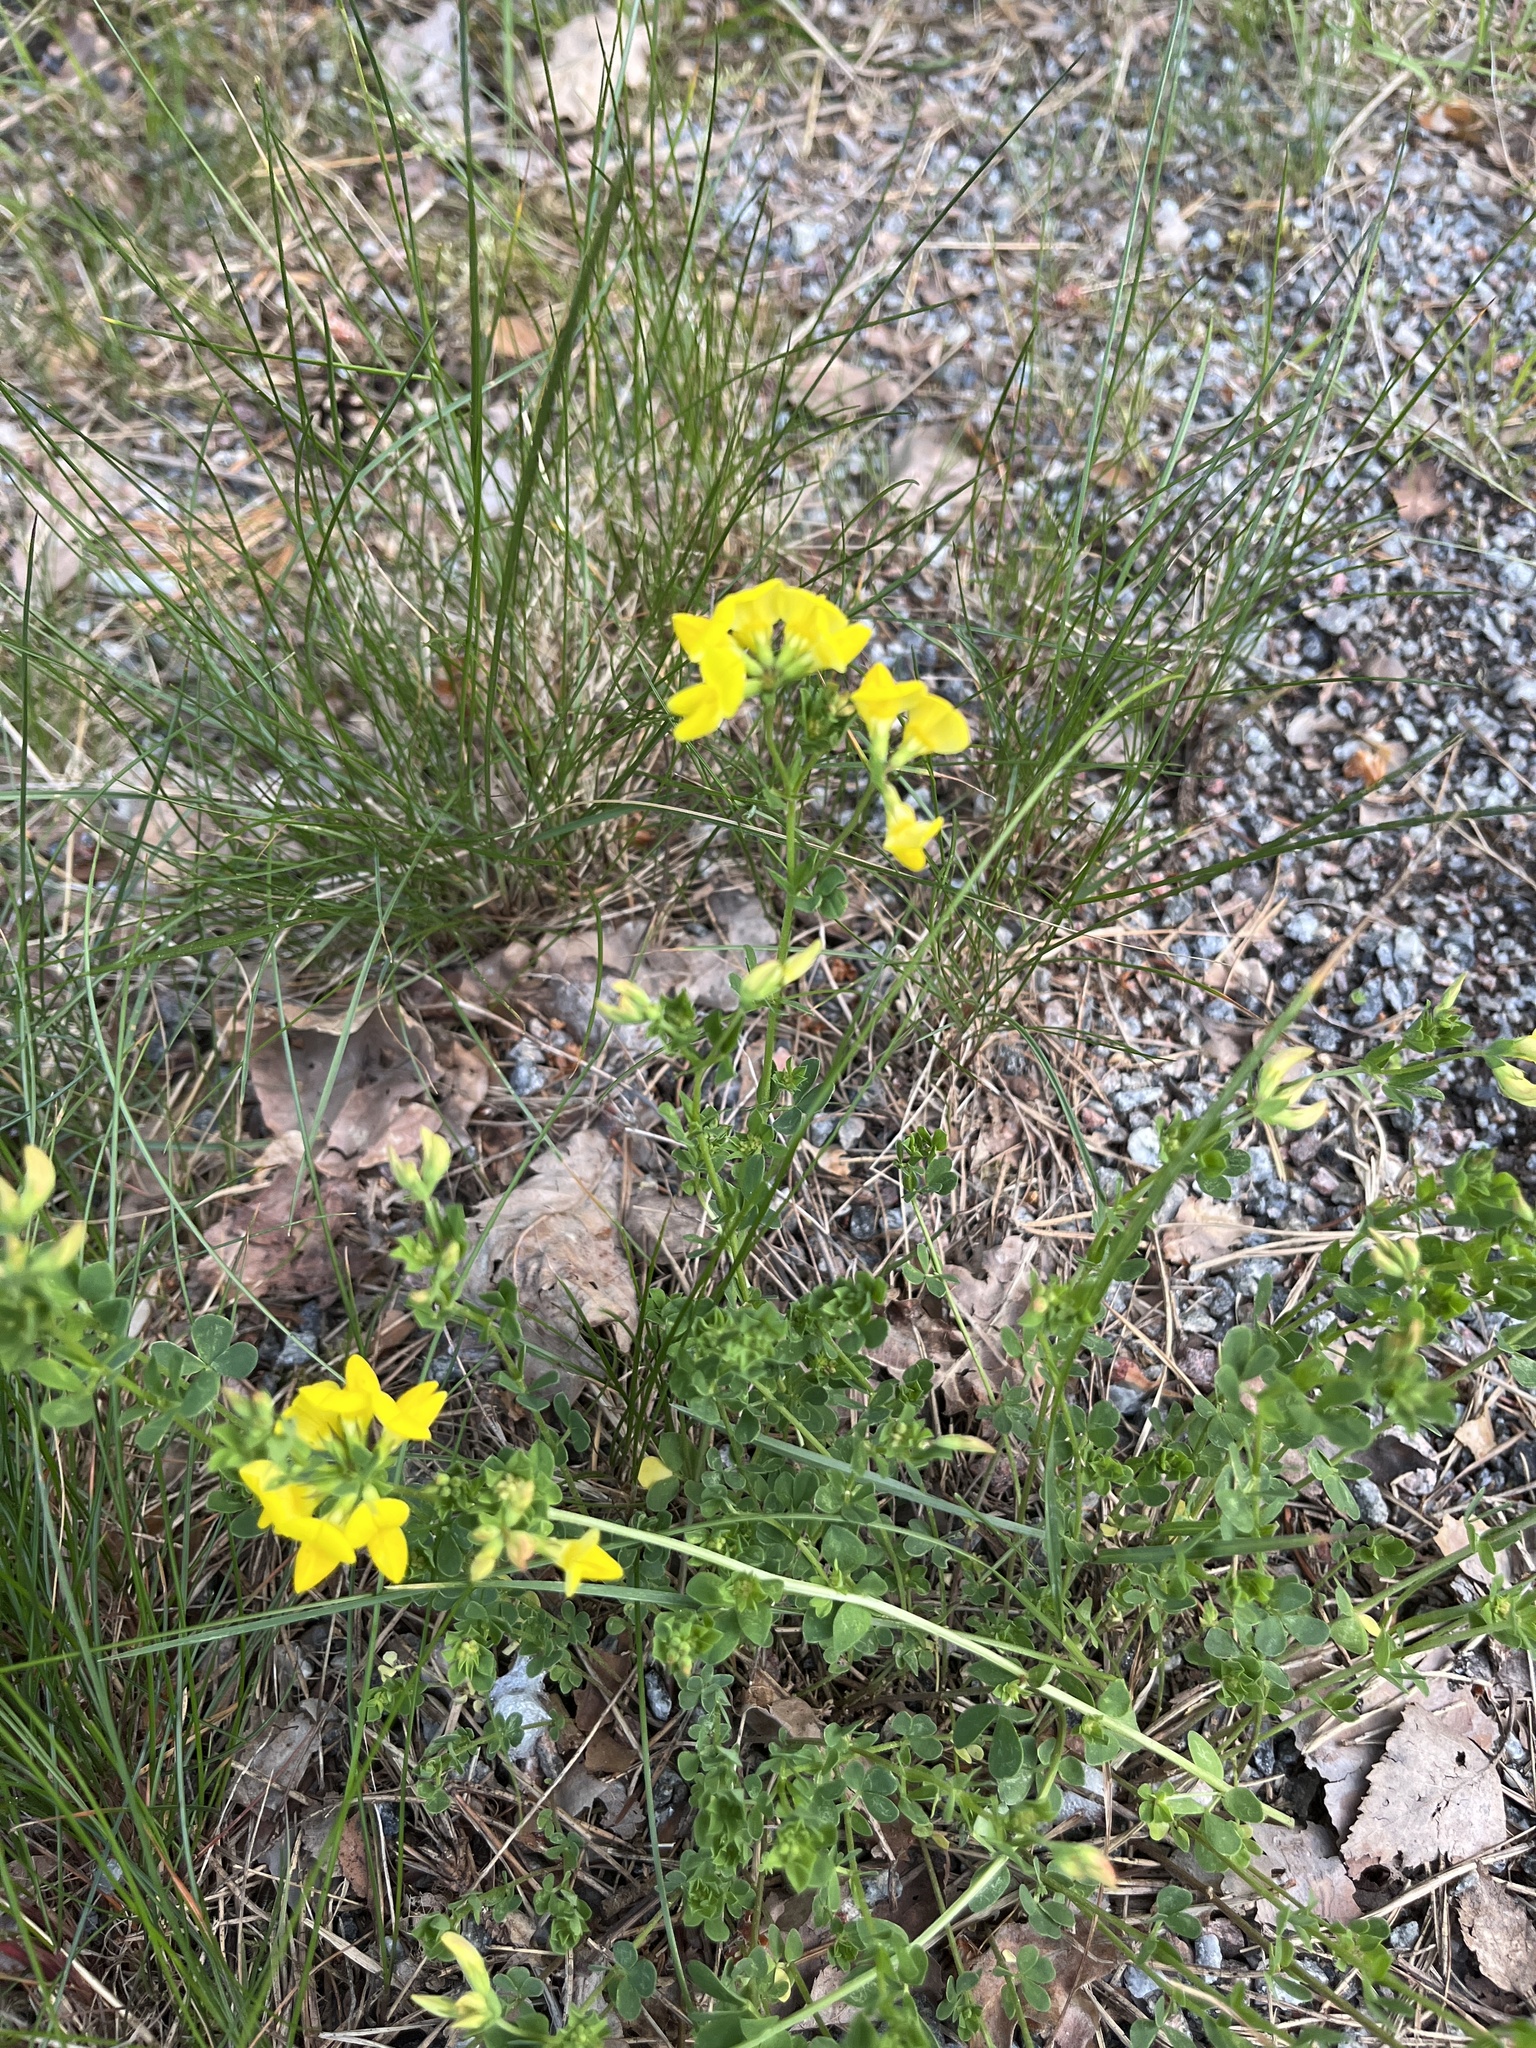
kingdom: Plantae
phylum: Tracheophyta
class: Magnoliopsida
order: Fabales
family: Fabaceae
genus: Lotus
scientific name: Lotus corniculatus
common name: Common bird's-foot-trefoil
